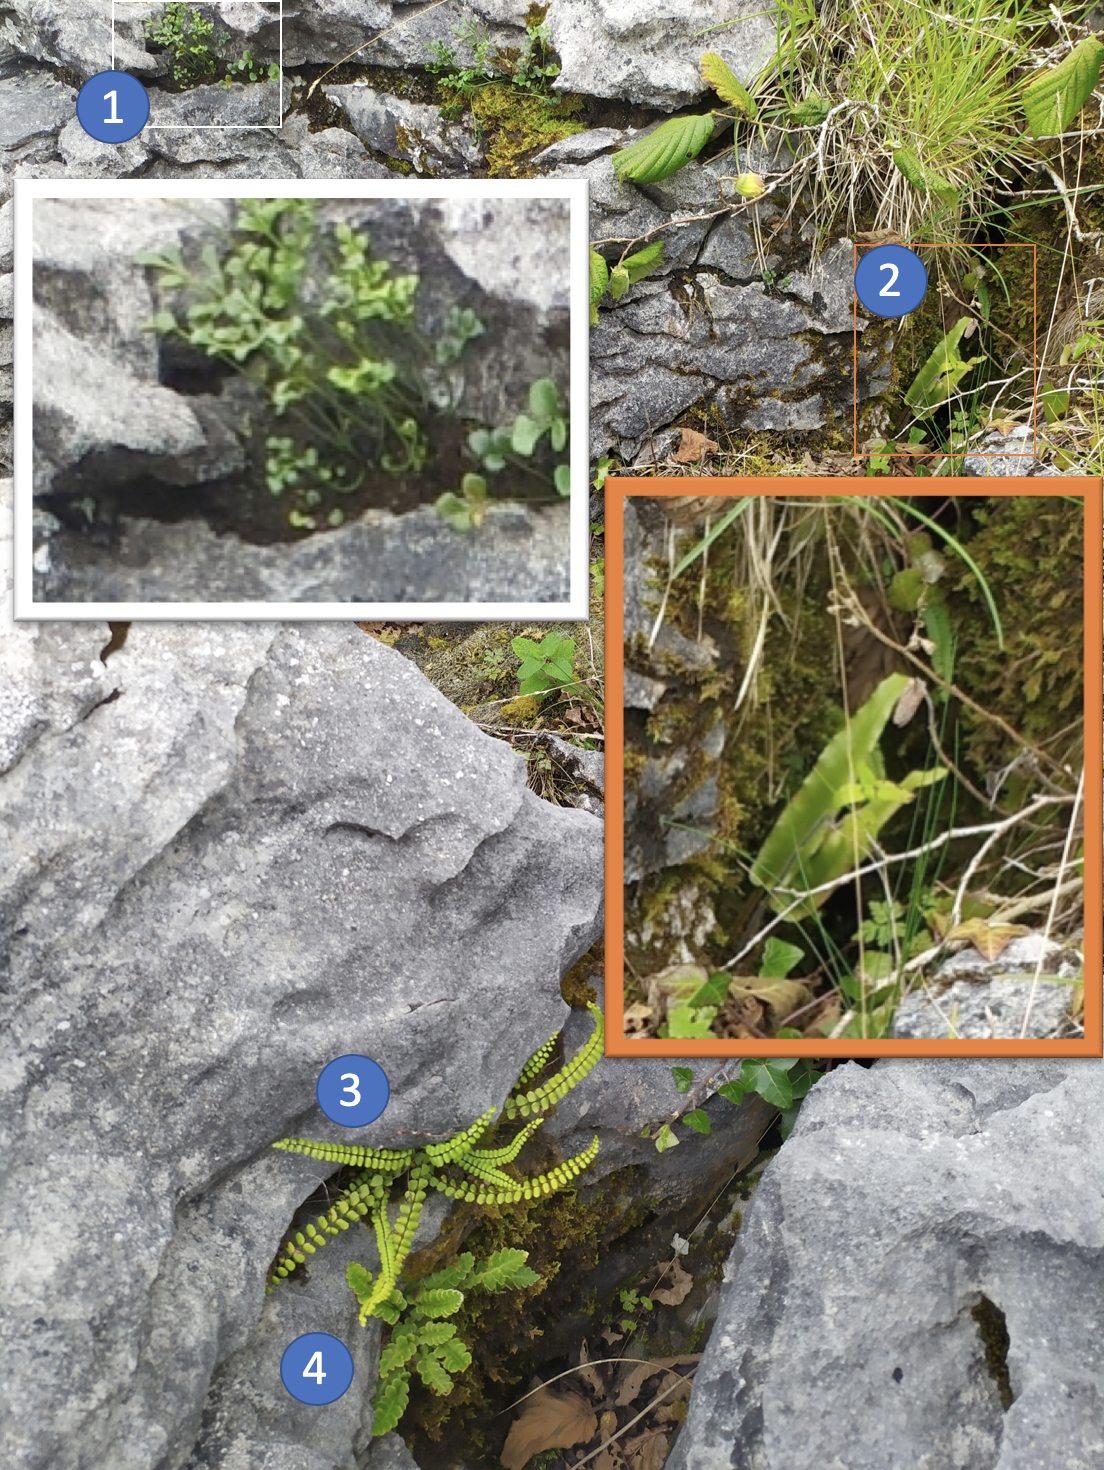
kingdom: Plantae
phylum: Tracheophyta
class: Polypodiopsida
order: Polypodiales
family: Aspleniaceae
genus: Asplenium
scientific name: Asplenium trichomanes
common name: Maidenhair spleenwort
